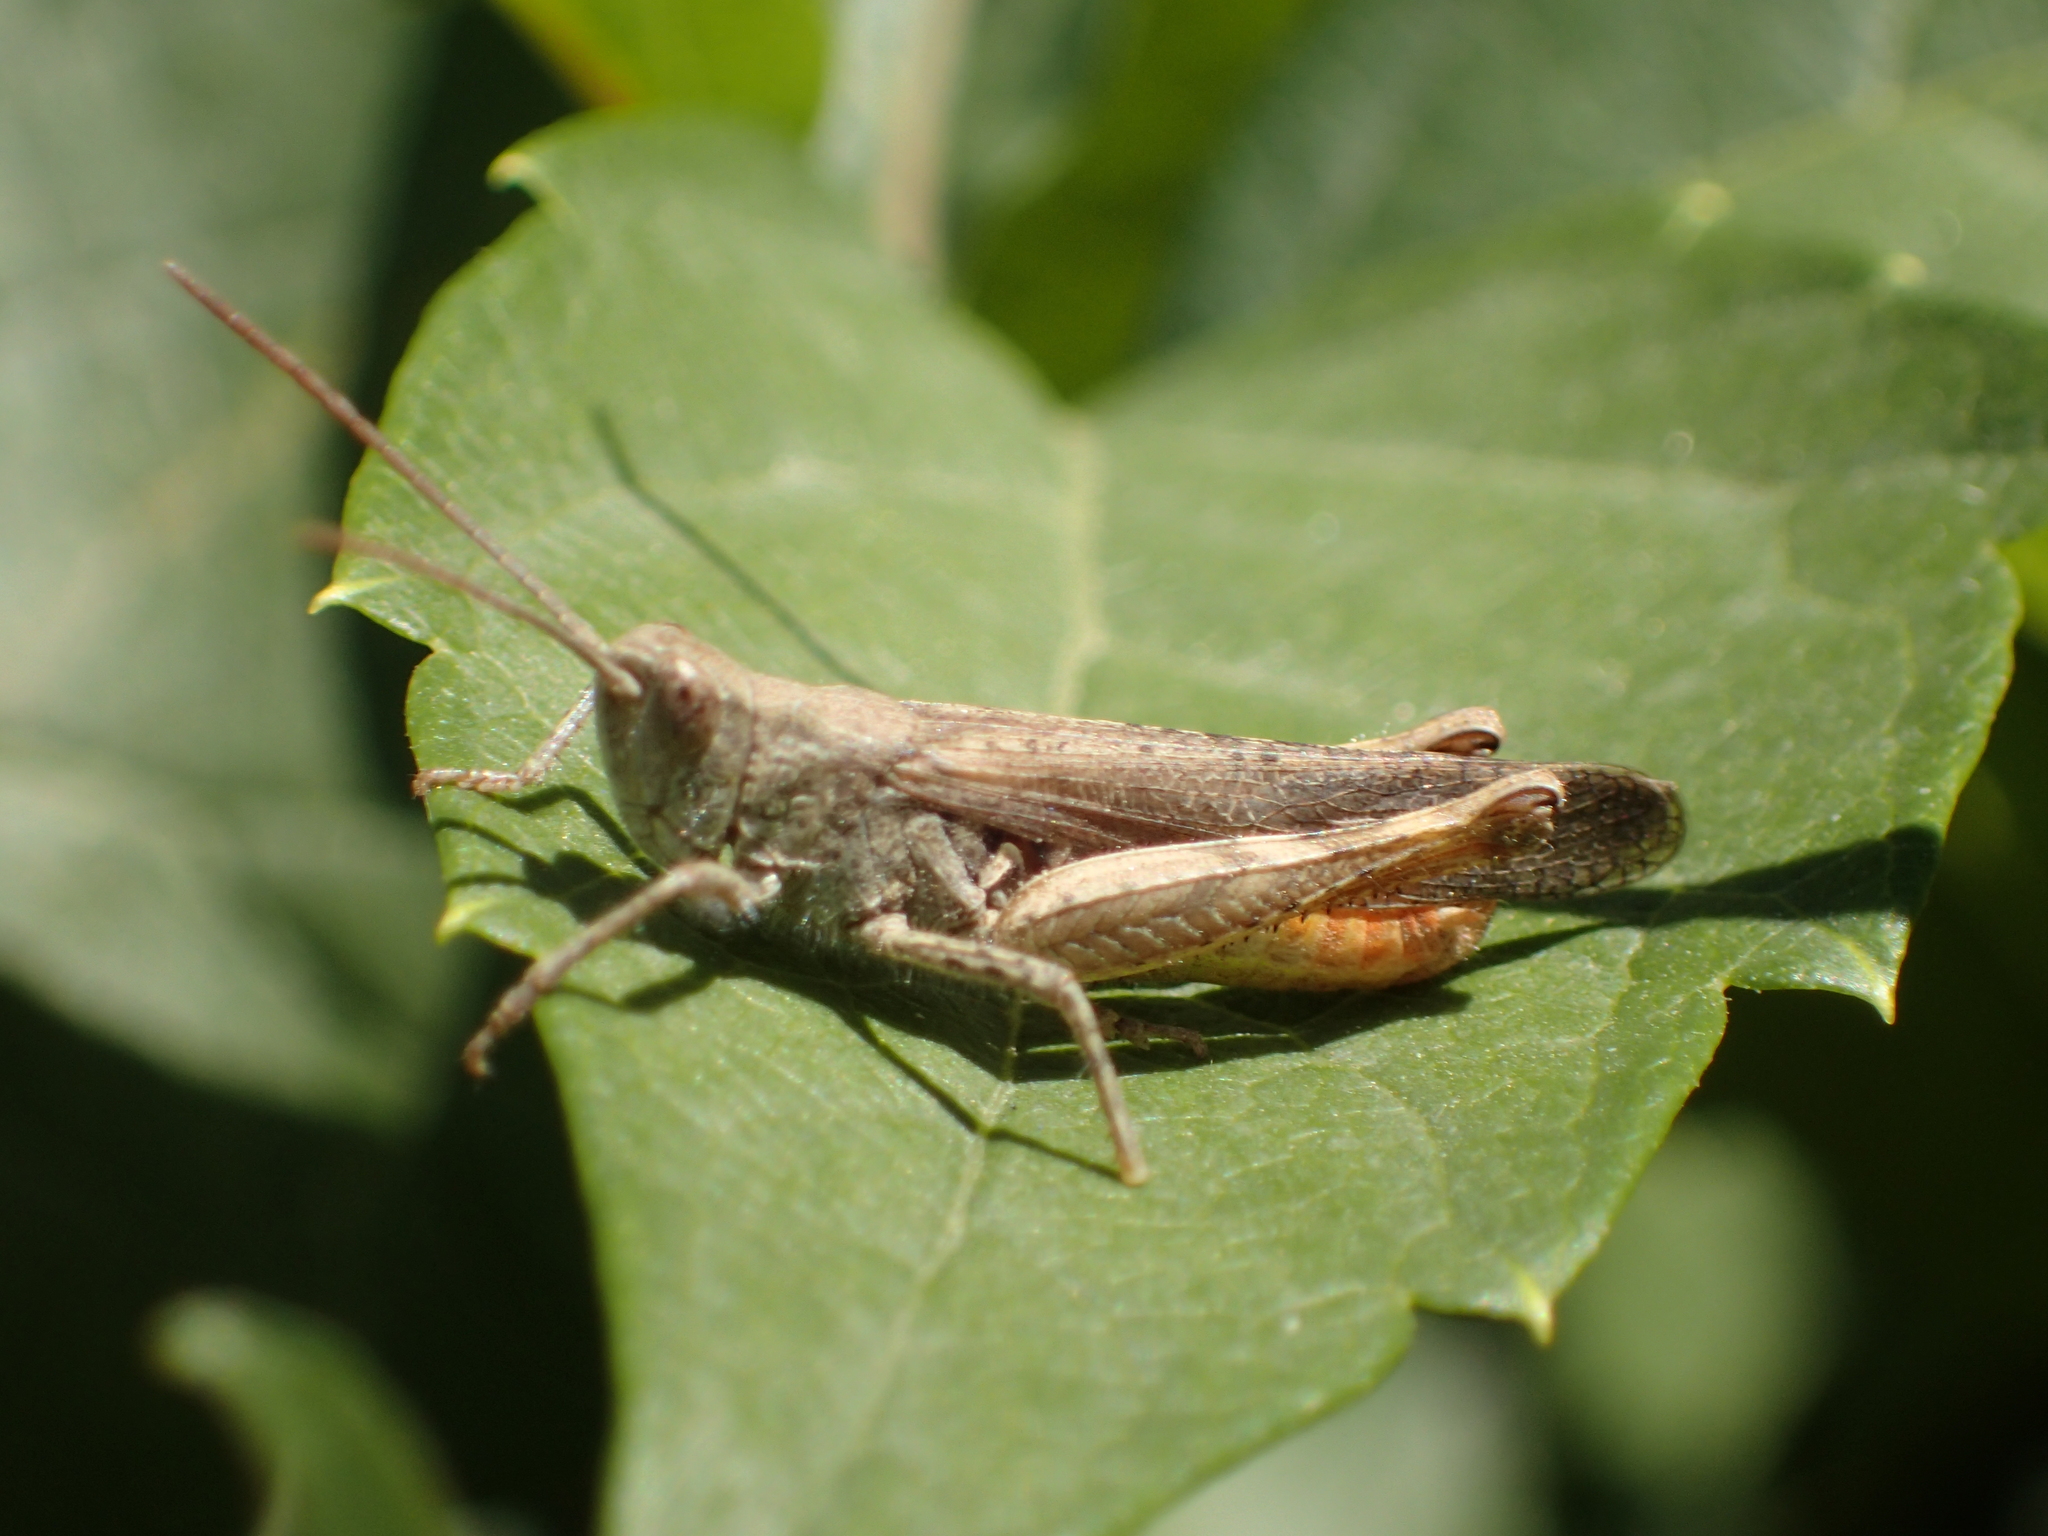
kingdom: Animalia
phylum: Arthropoda
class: Insecta
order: Orthoptera
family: Acrididae
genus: Chorthippus
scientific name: Chorthippus brunneus
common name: Field grasshopper
